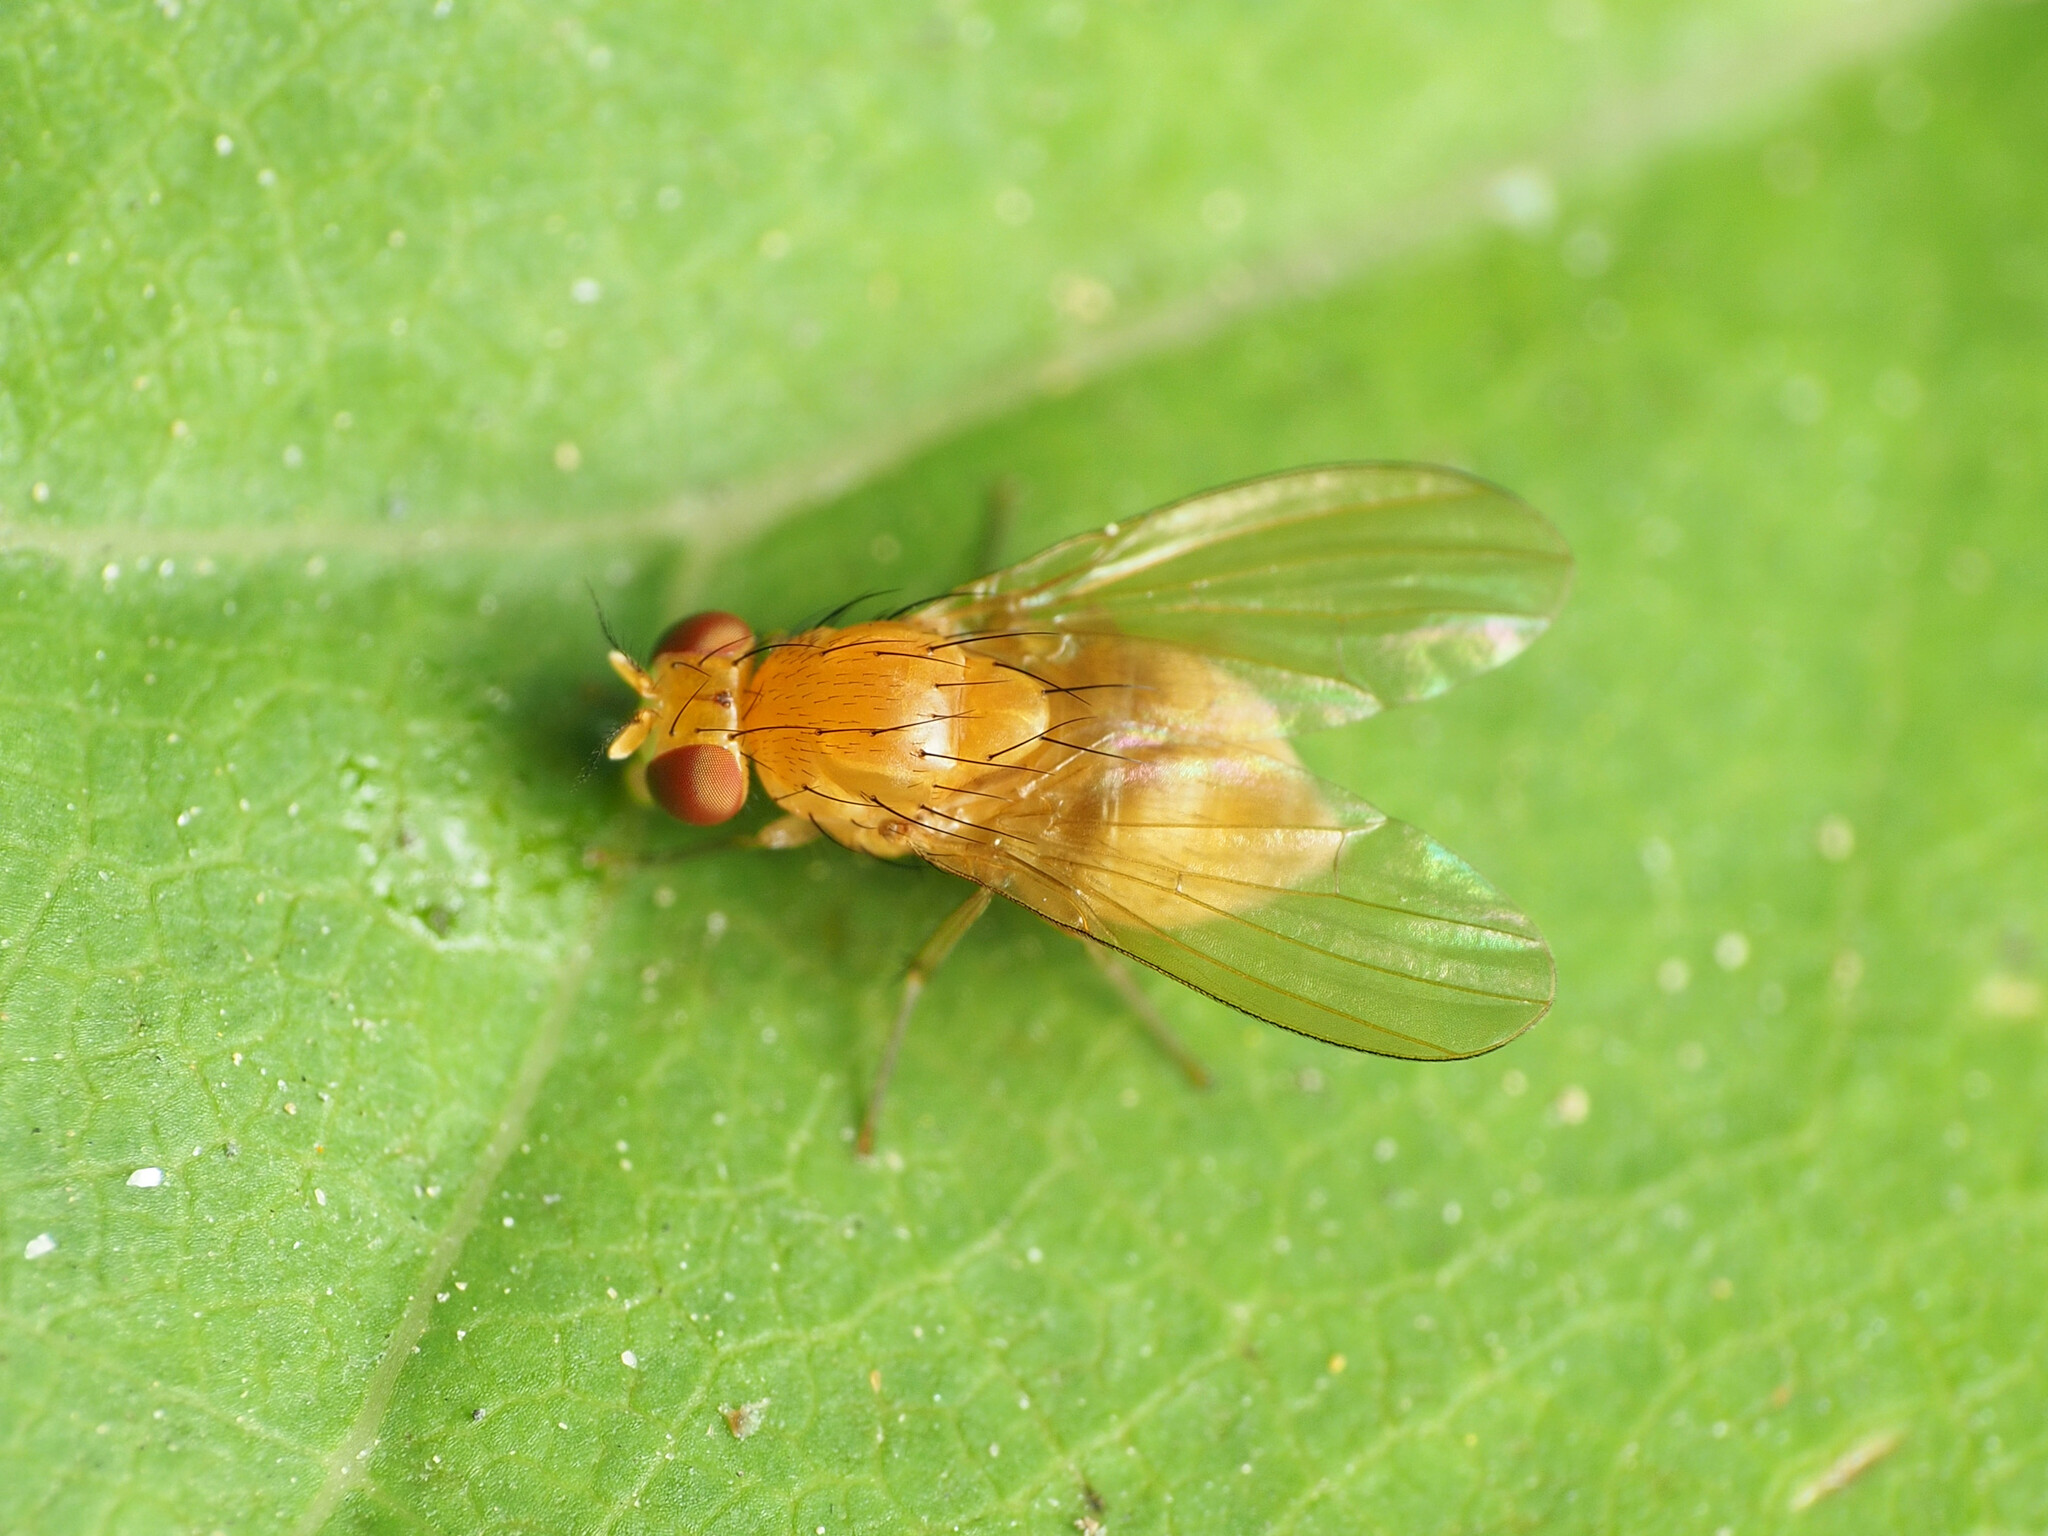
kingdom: Animalia
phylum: Arthropoda
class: Insecta
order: Diptera
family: Lauxaniidae
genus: Neogriphoneura
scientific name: Neogriphoneura sordida
